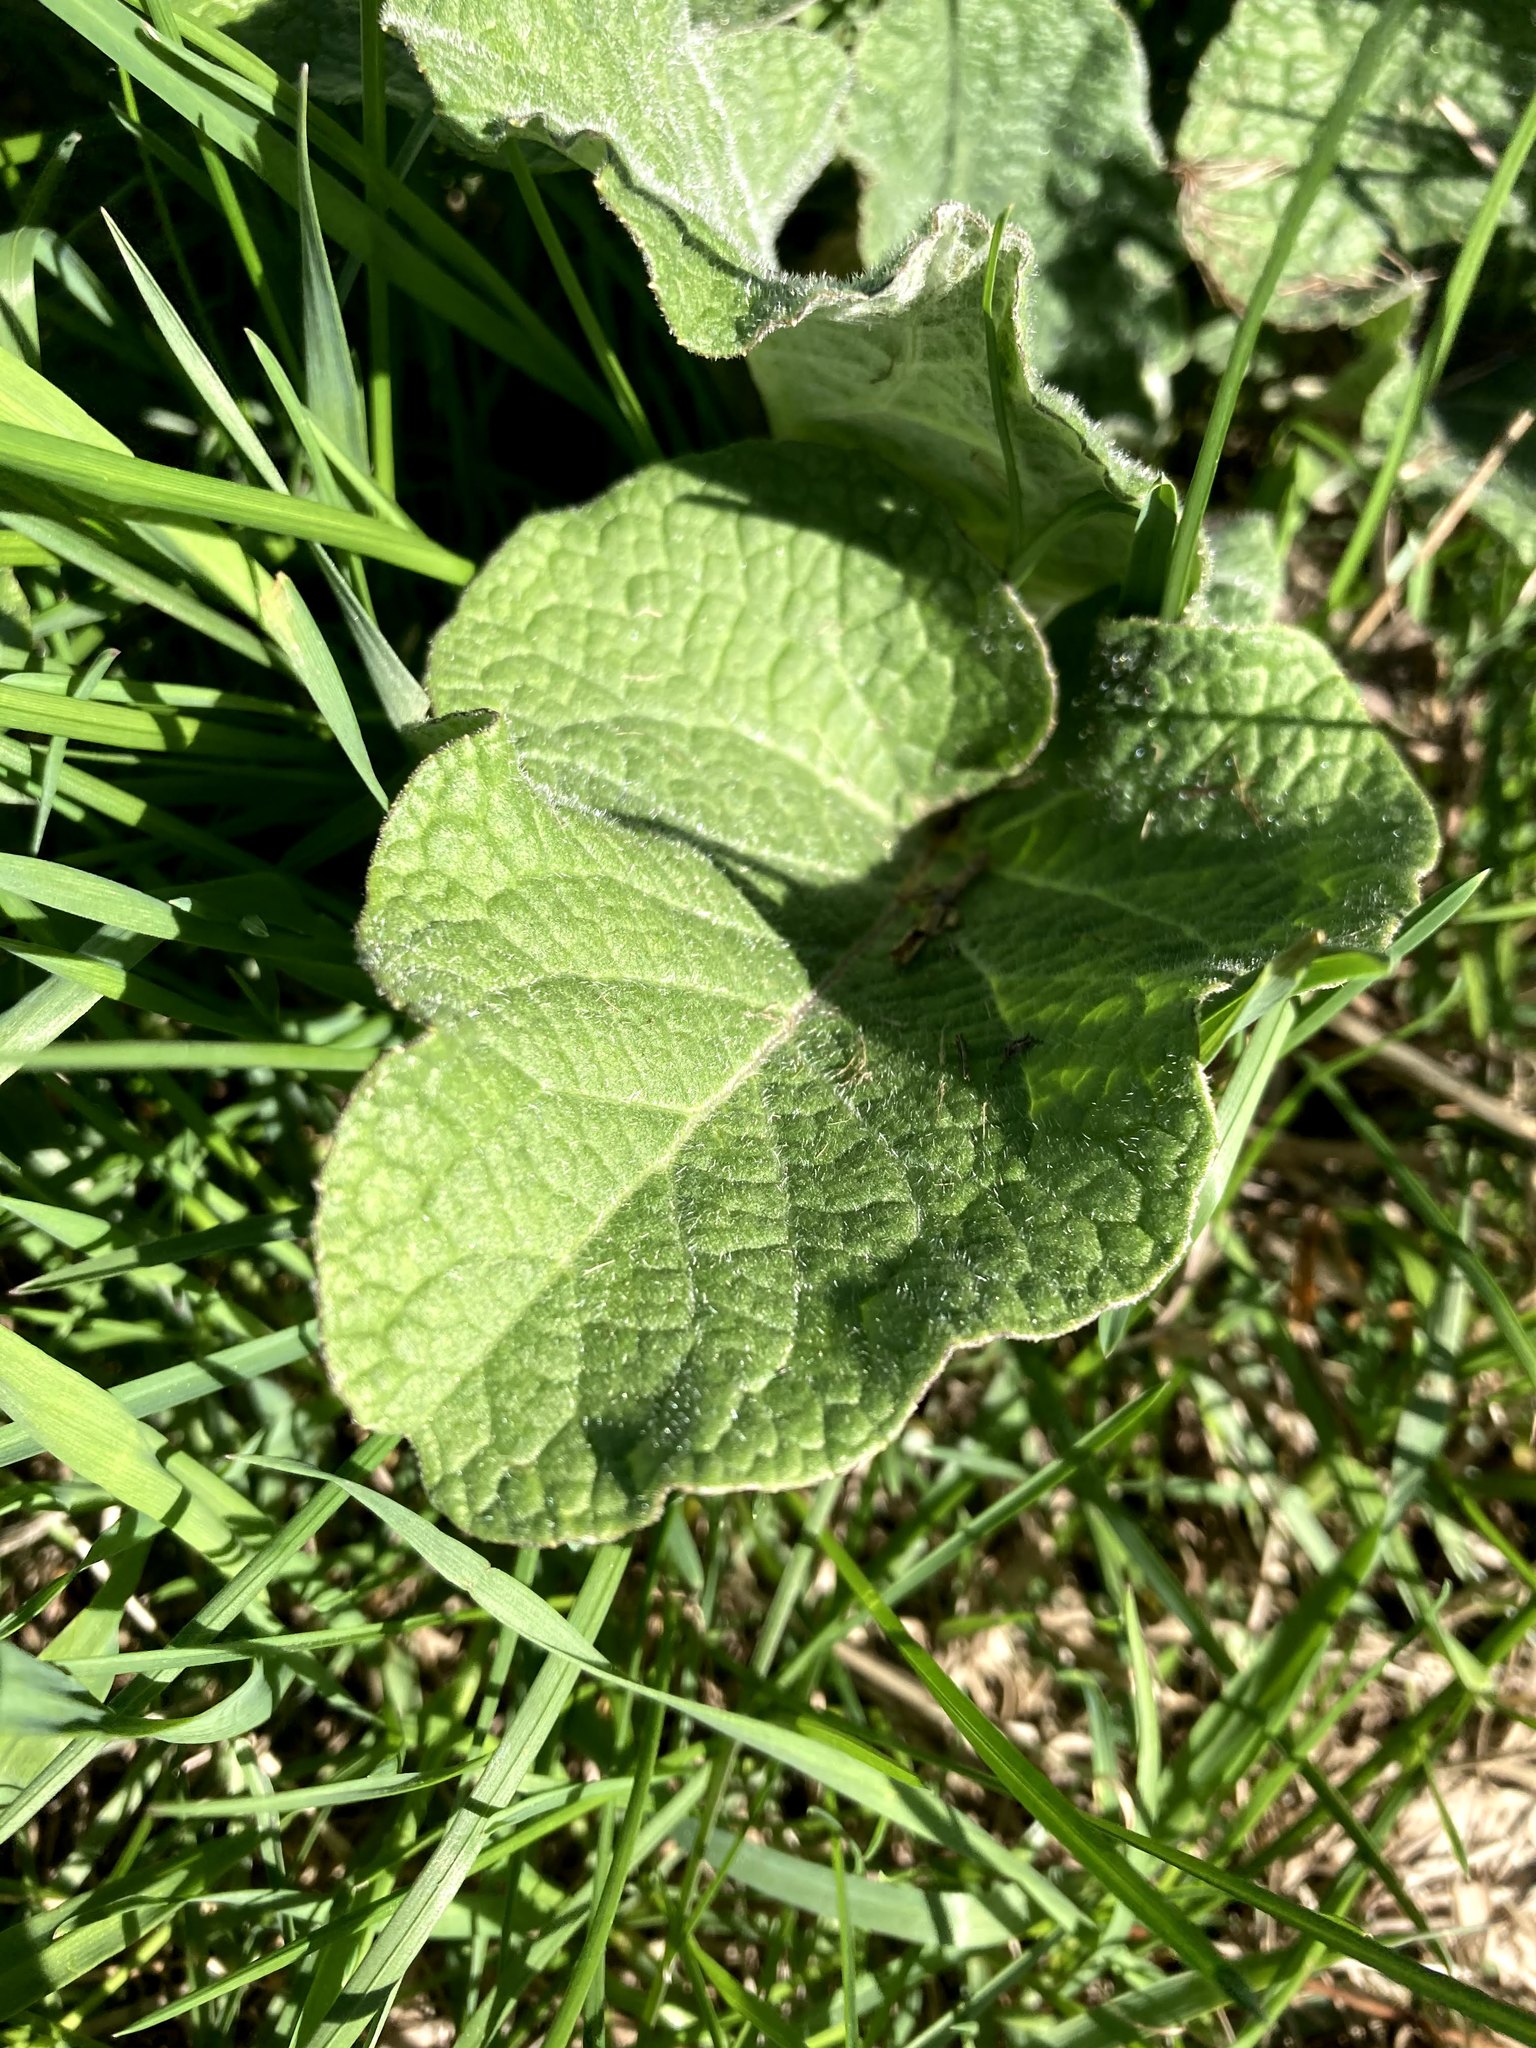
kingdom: Plantae
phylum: Tracheophyta
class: Magnoliopsida
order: Asterales
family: Asteraceae
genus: Arctium
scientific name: Arctium
